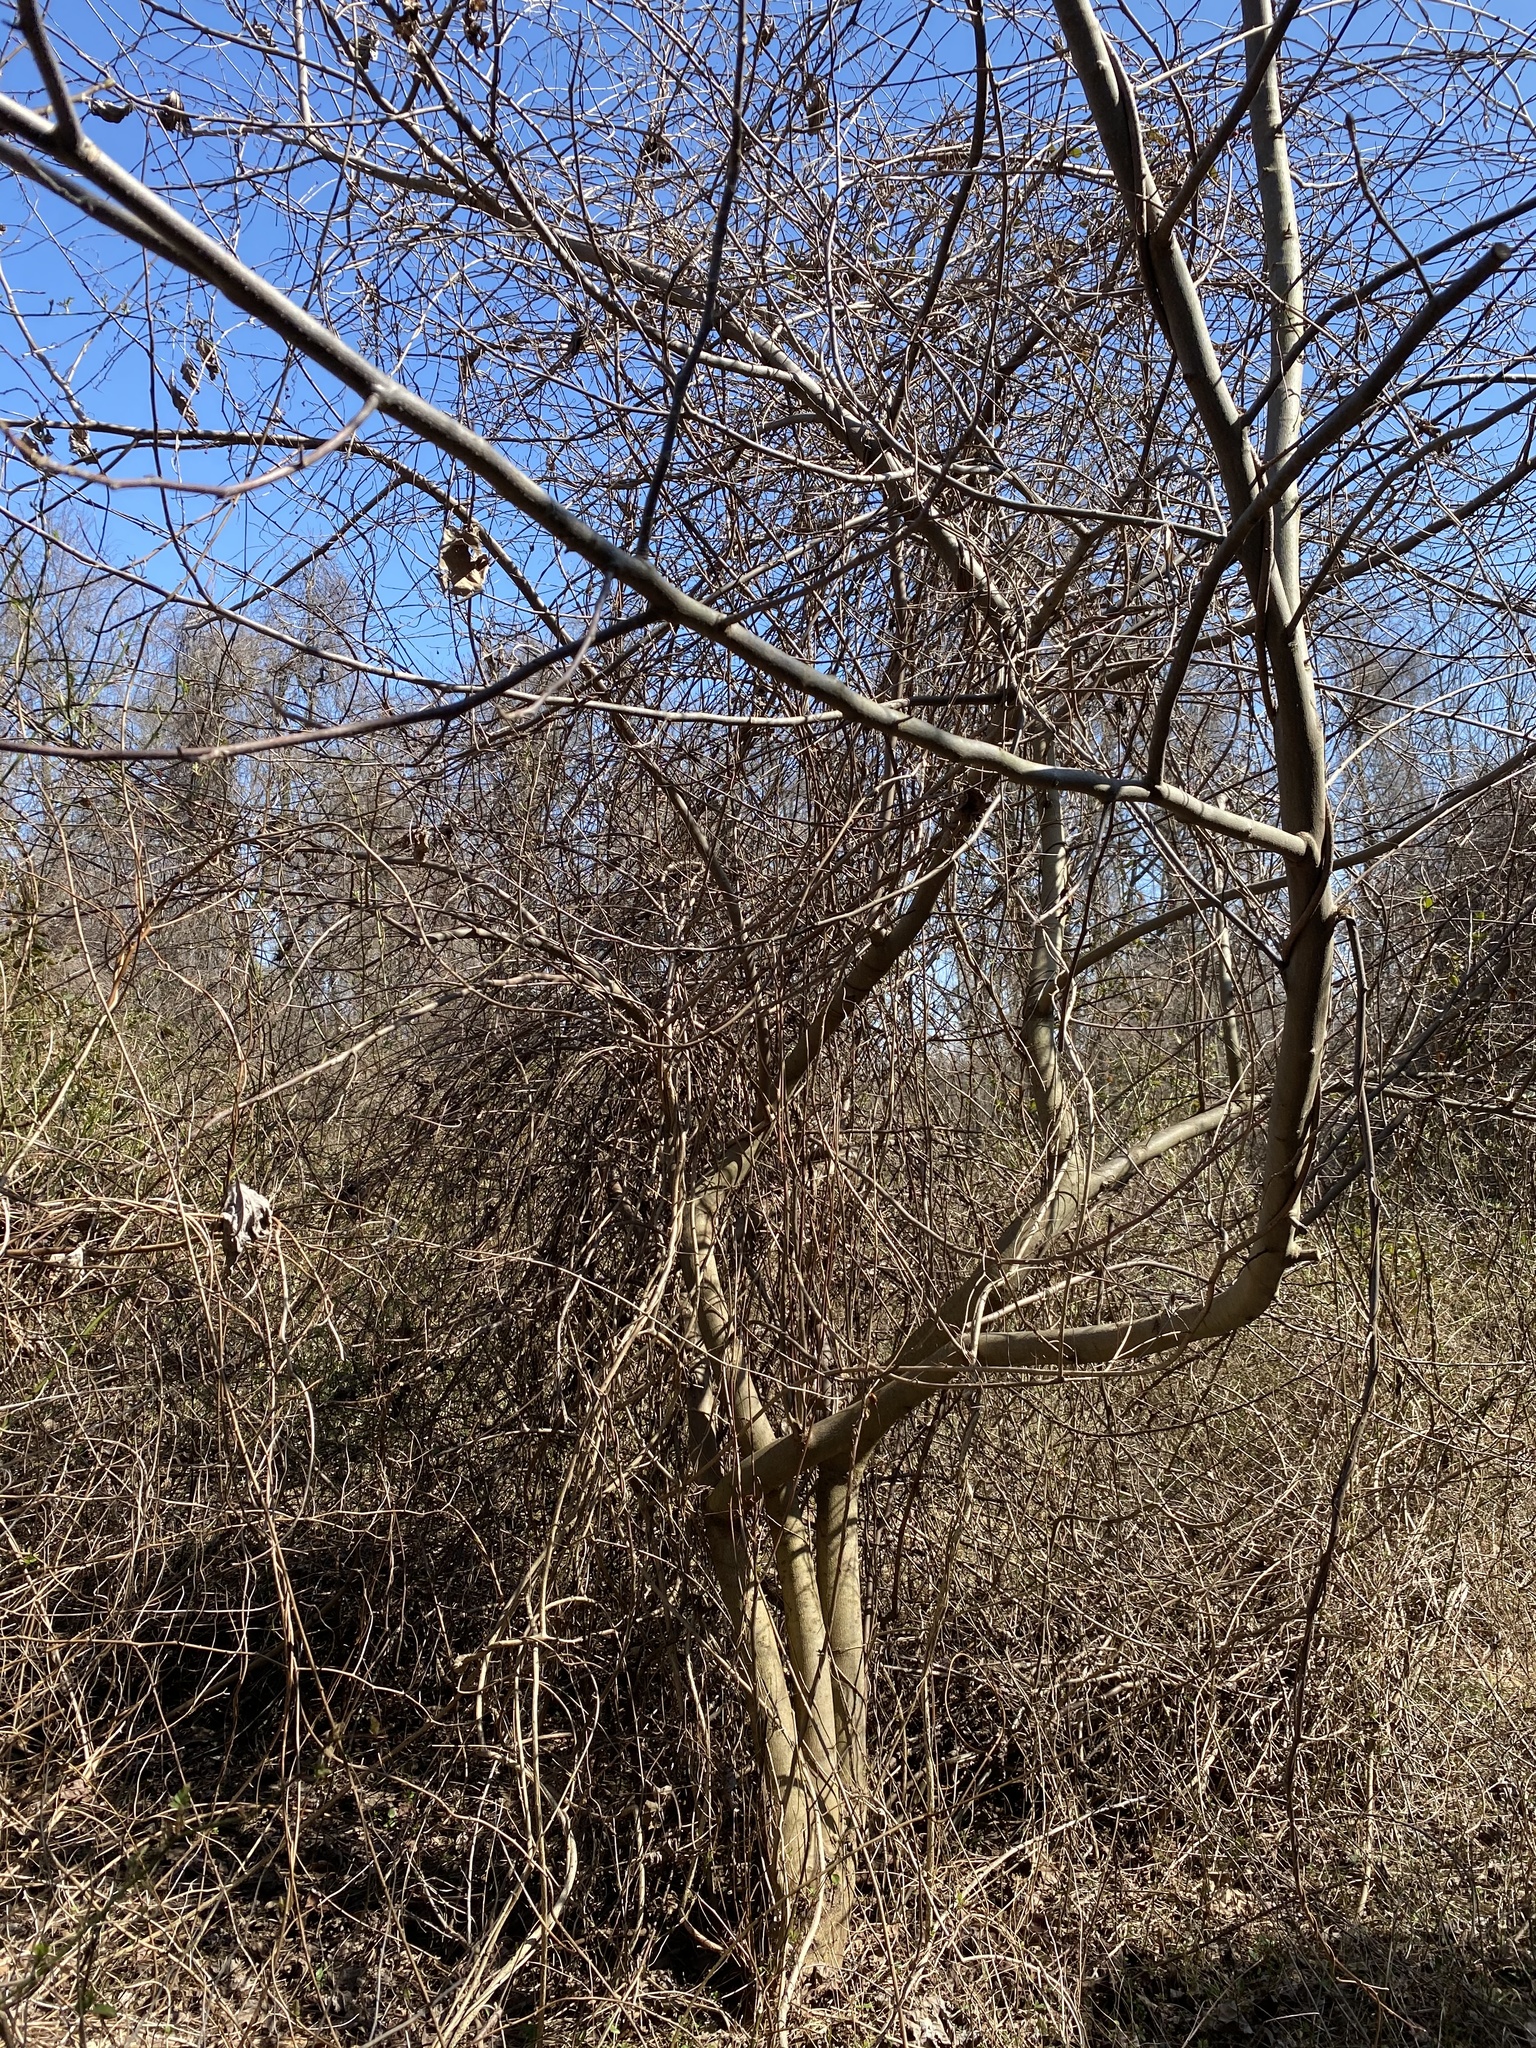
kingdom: Plantae
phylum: Tracheophyta
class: Magnoliopsida
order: Magnoliales
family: Magnoliaceae
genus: Liriodendron
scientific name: Liriodendron tulipifera
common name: Tulip tree
